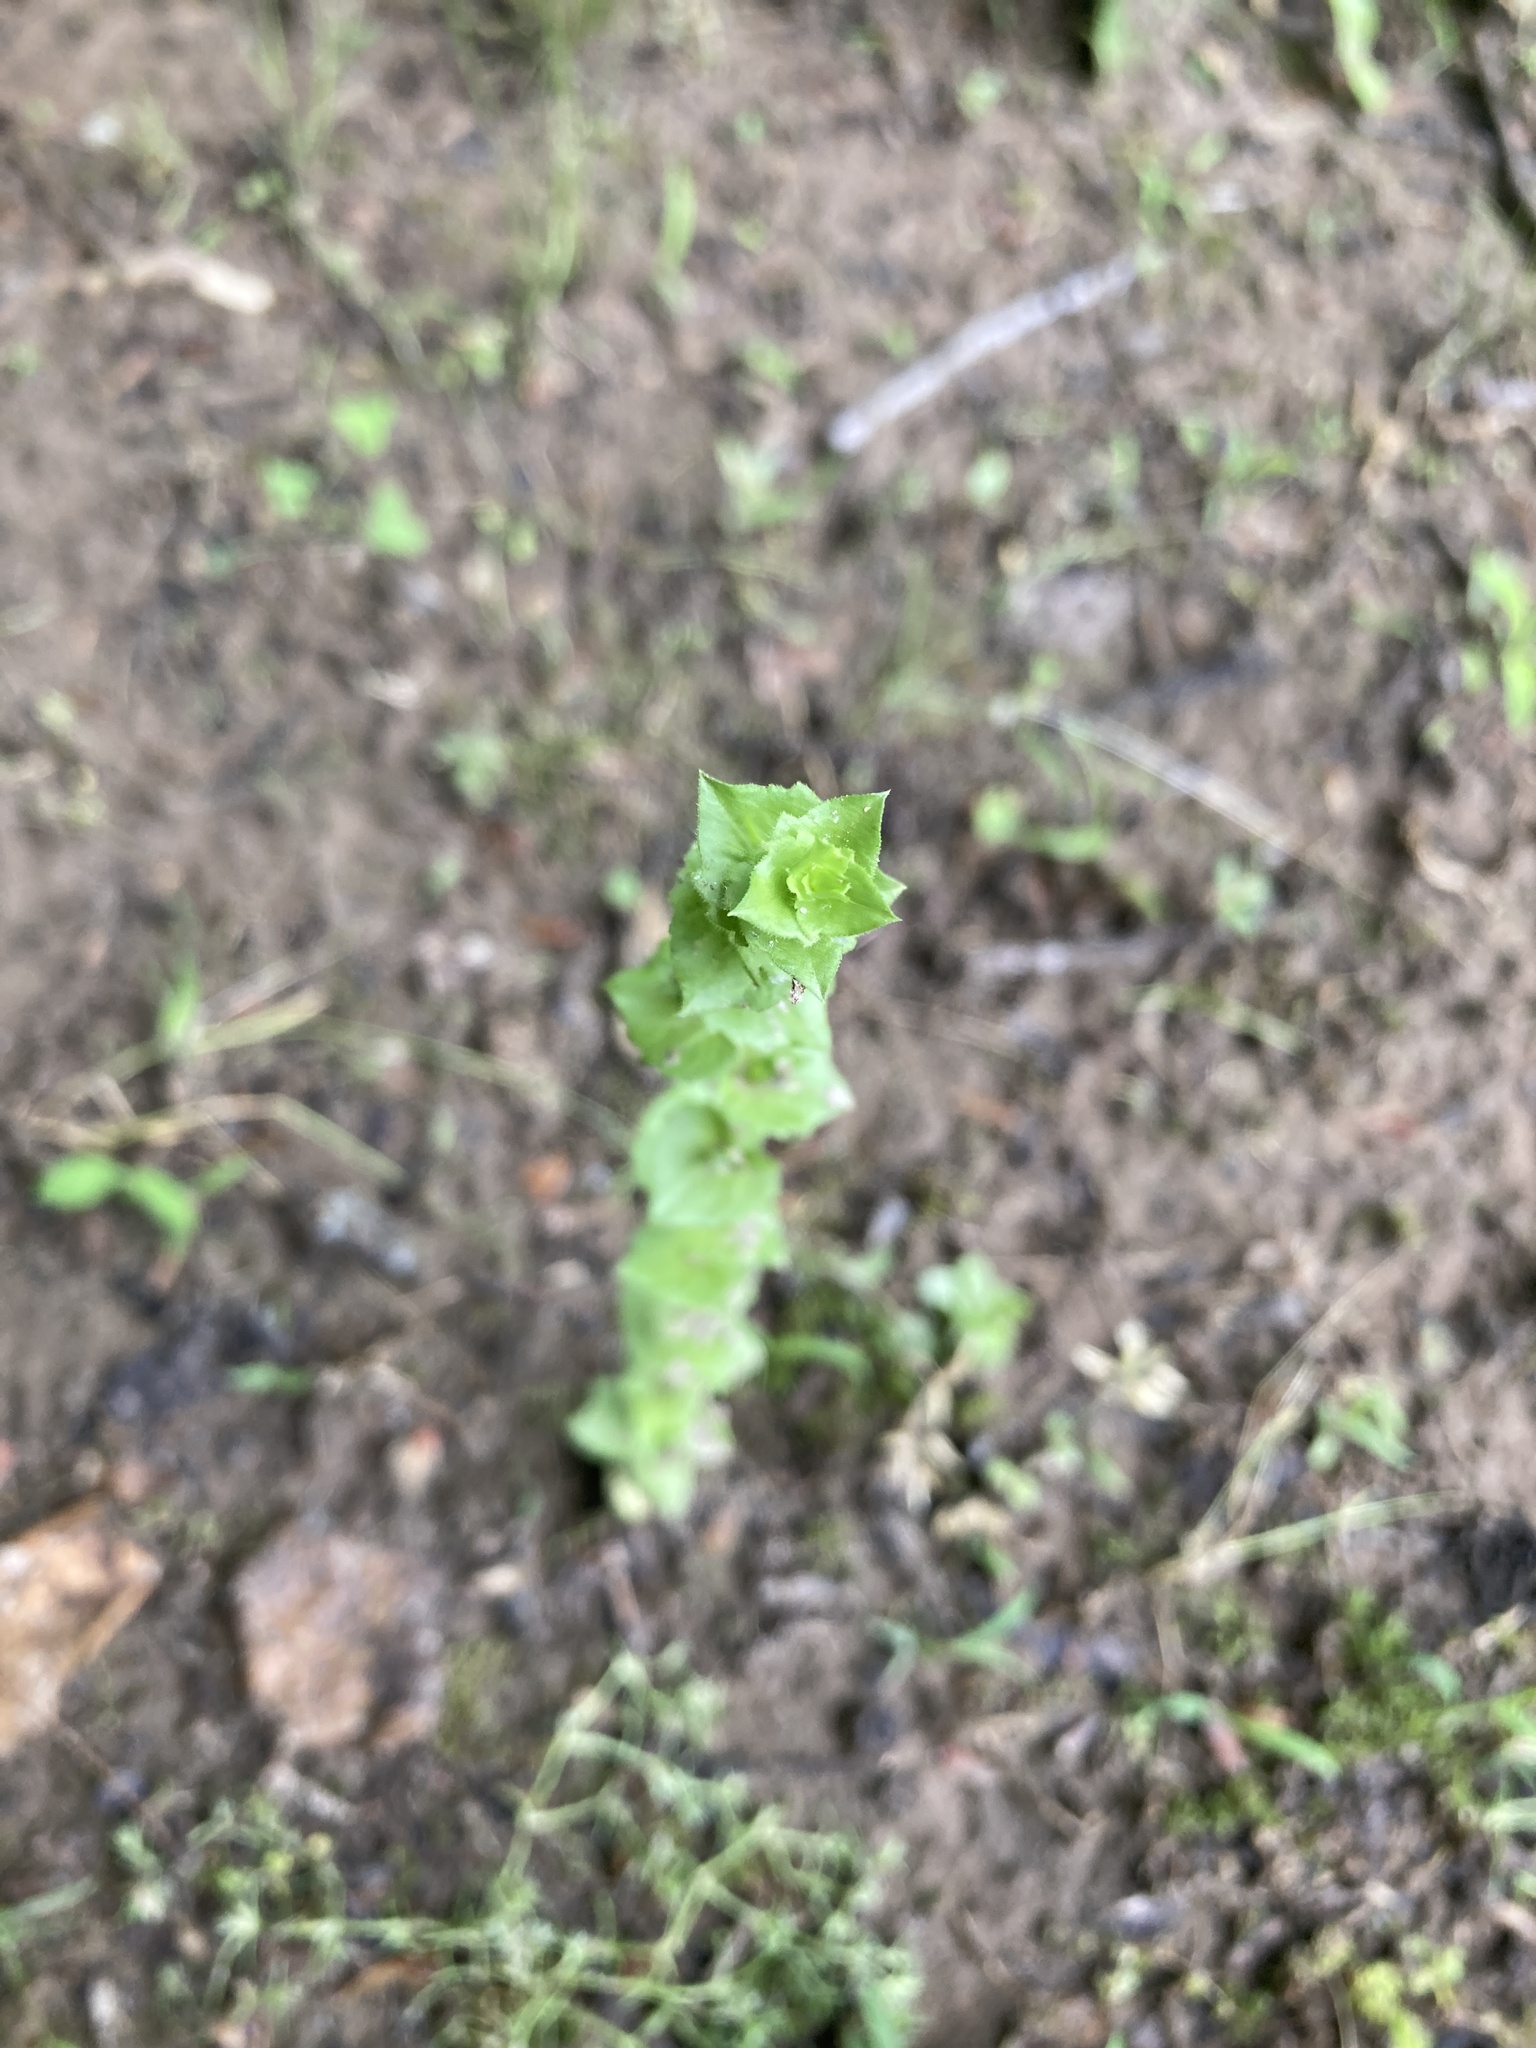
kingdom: Plantae
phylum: Tracheophyta
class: Magnoliopsida
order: Asterales
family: Campanulaceae
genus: Triodanis
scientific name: Triodanis perfoliata
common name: Clasping venus' looking-glass
